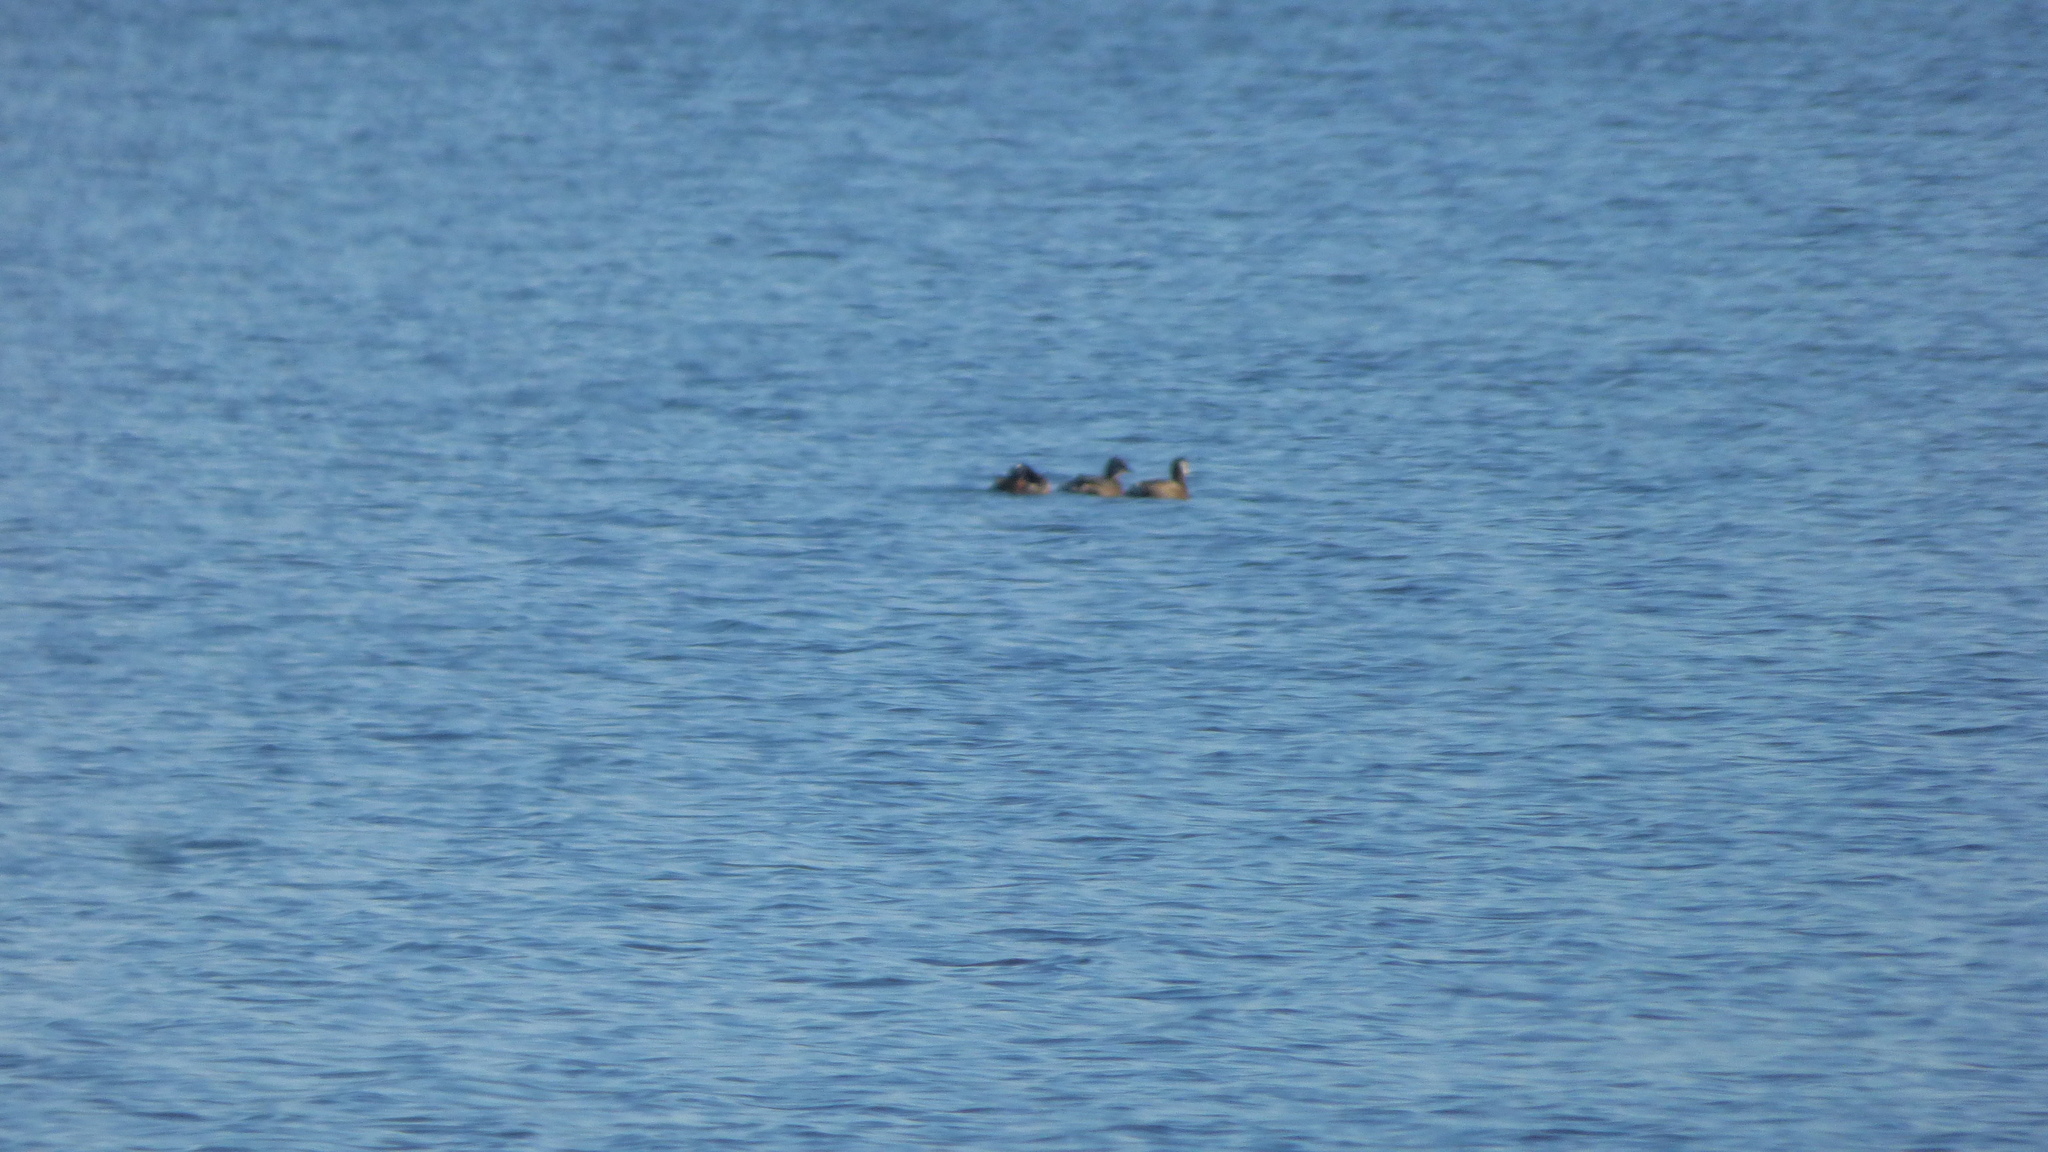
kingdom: Animalia
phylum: Chordata
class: Aves
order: Podicipediformes
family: Podicipedidae
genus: Rollandia
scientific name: Rollandia rolland
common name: White-tufted grebe
